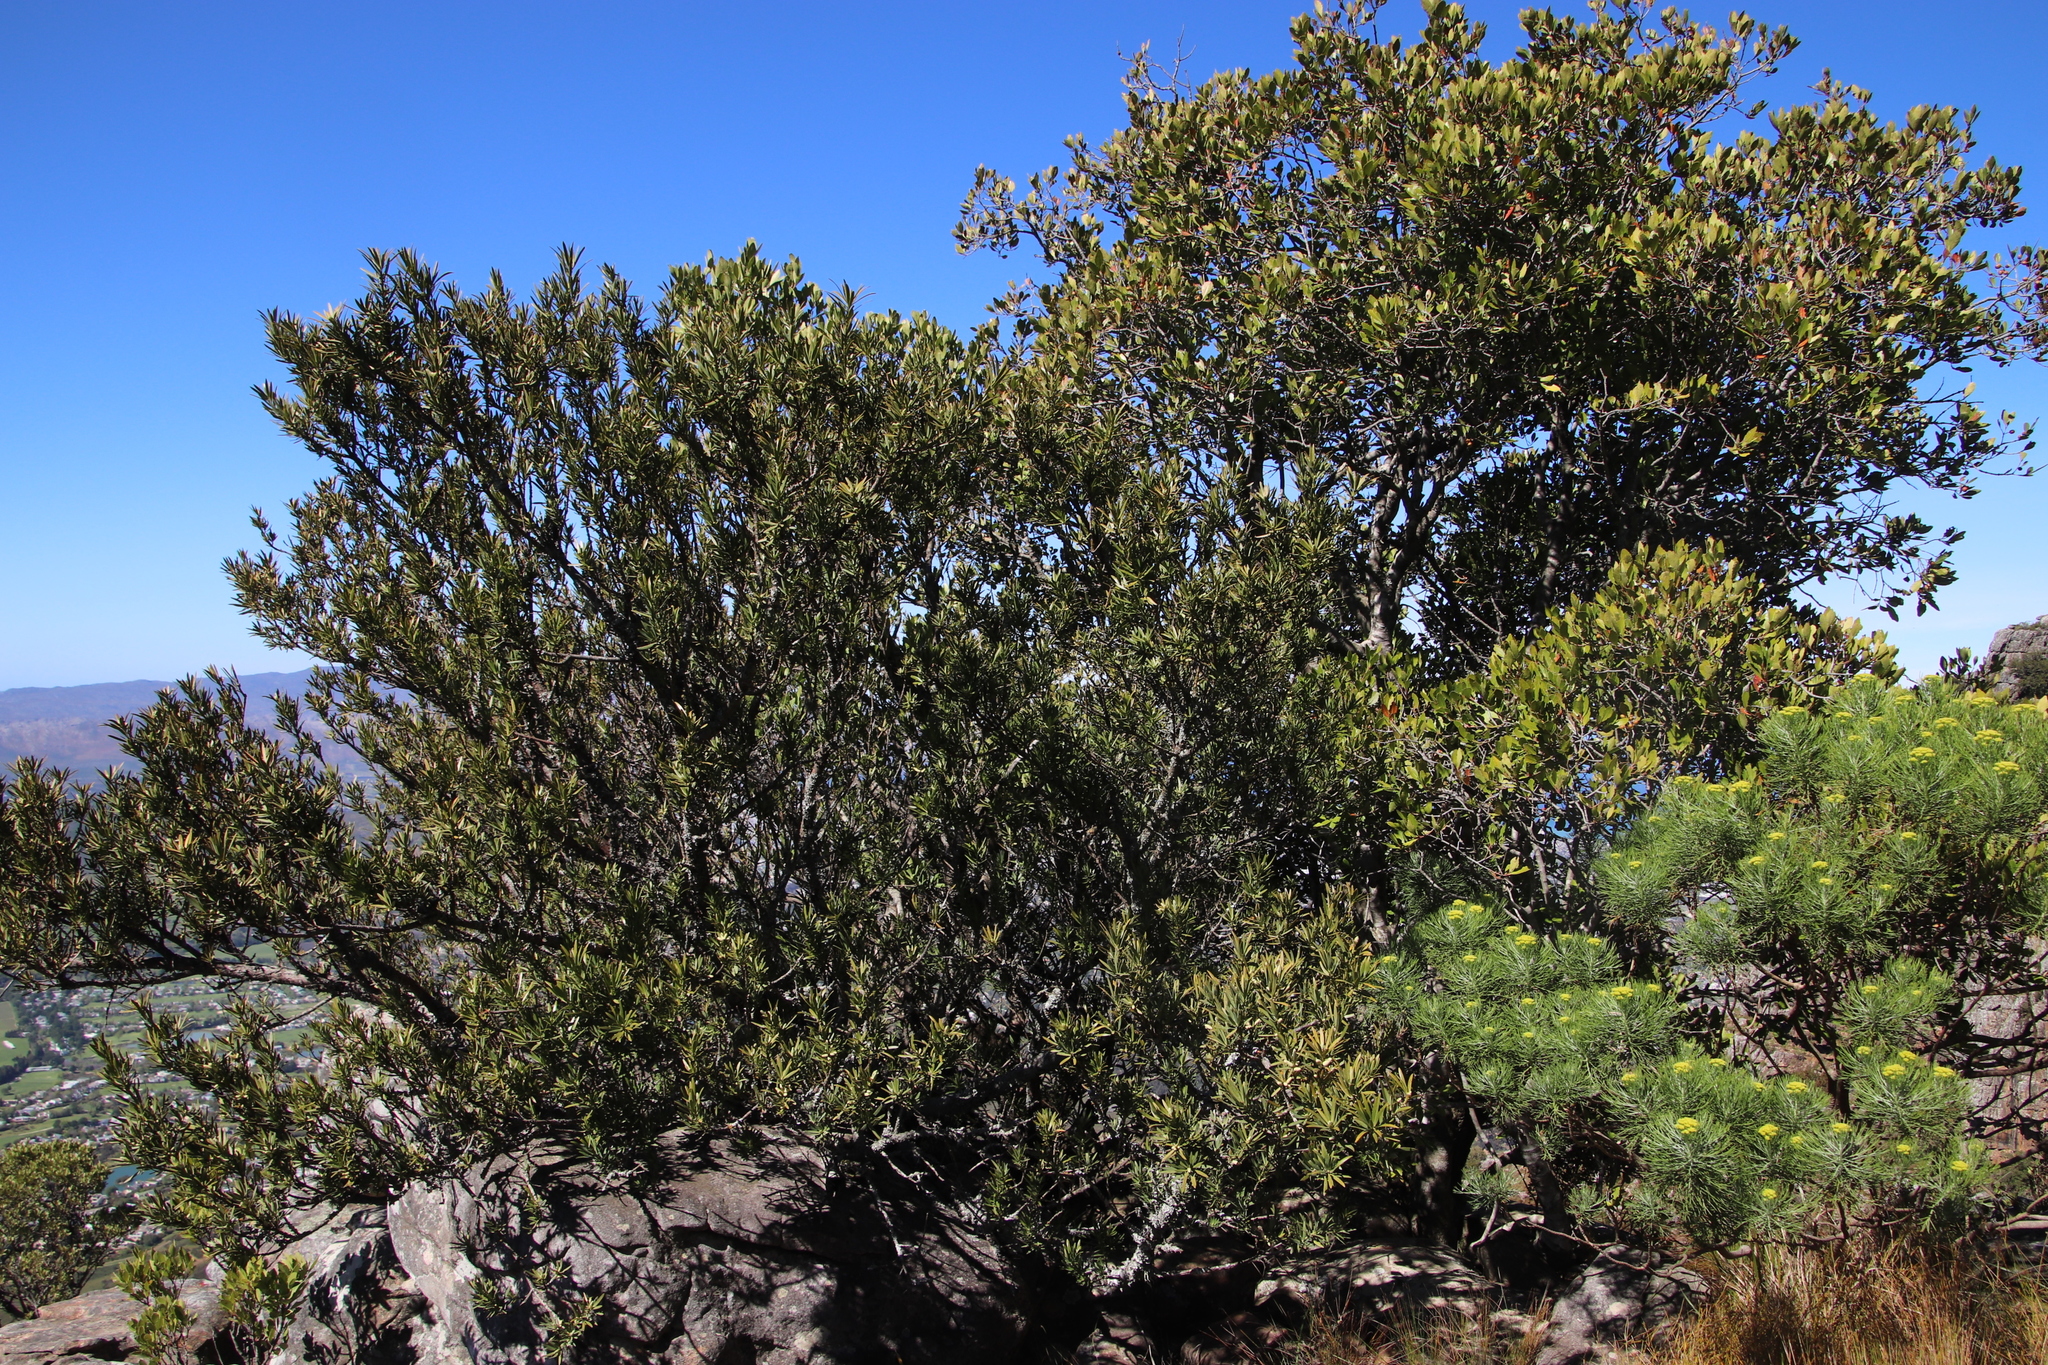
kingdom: Plantae
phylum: Tracheophyta
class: Magnoliopsida
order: Celastrales
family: Celastraceae
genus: Elaeodendron
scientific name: Elaeodendron schinoides
